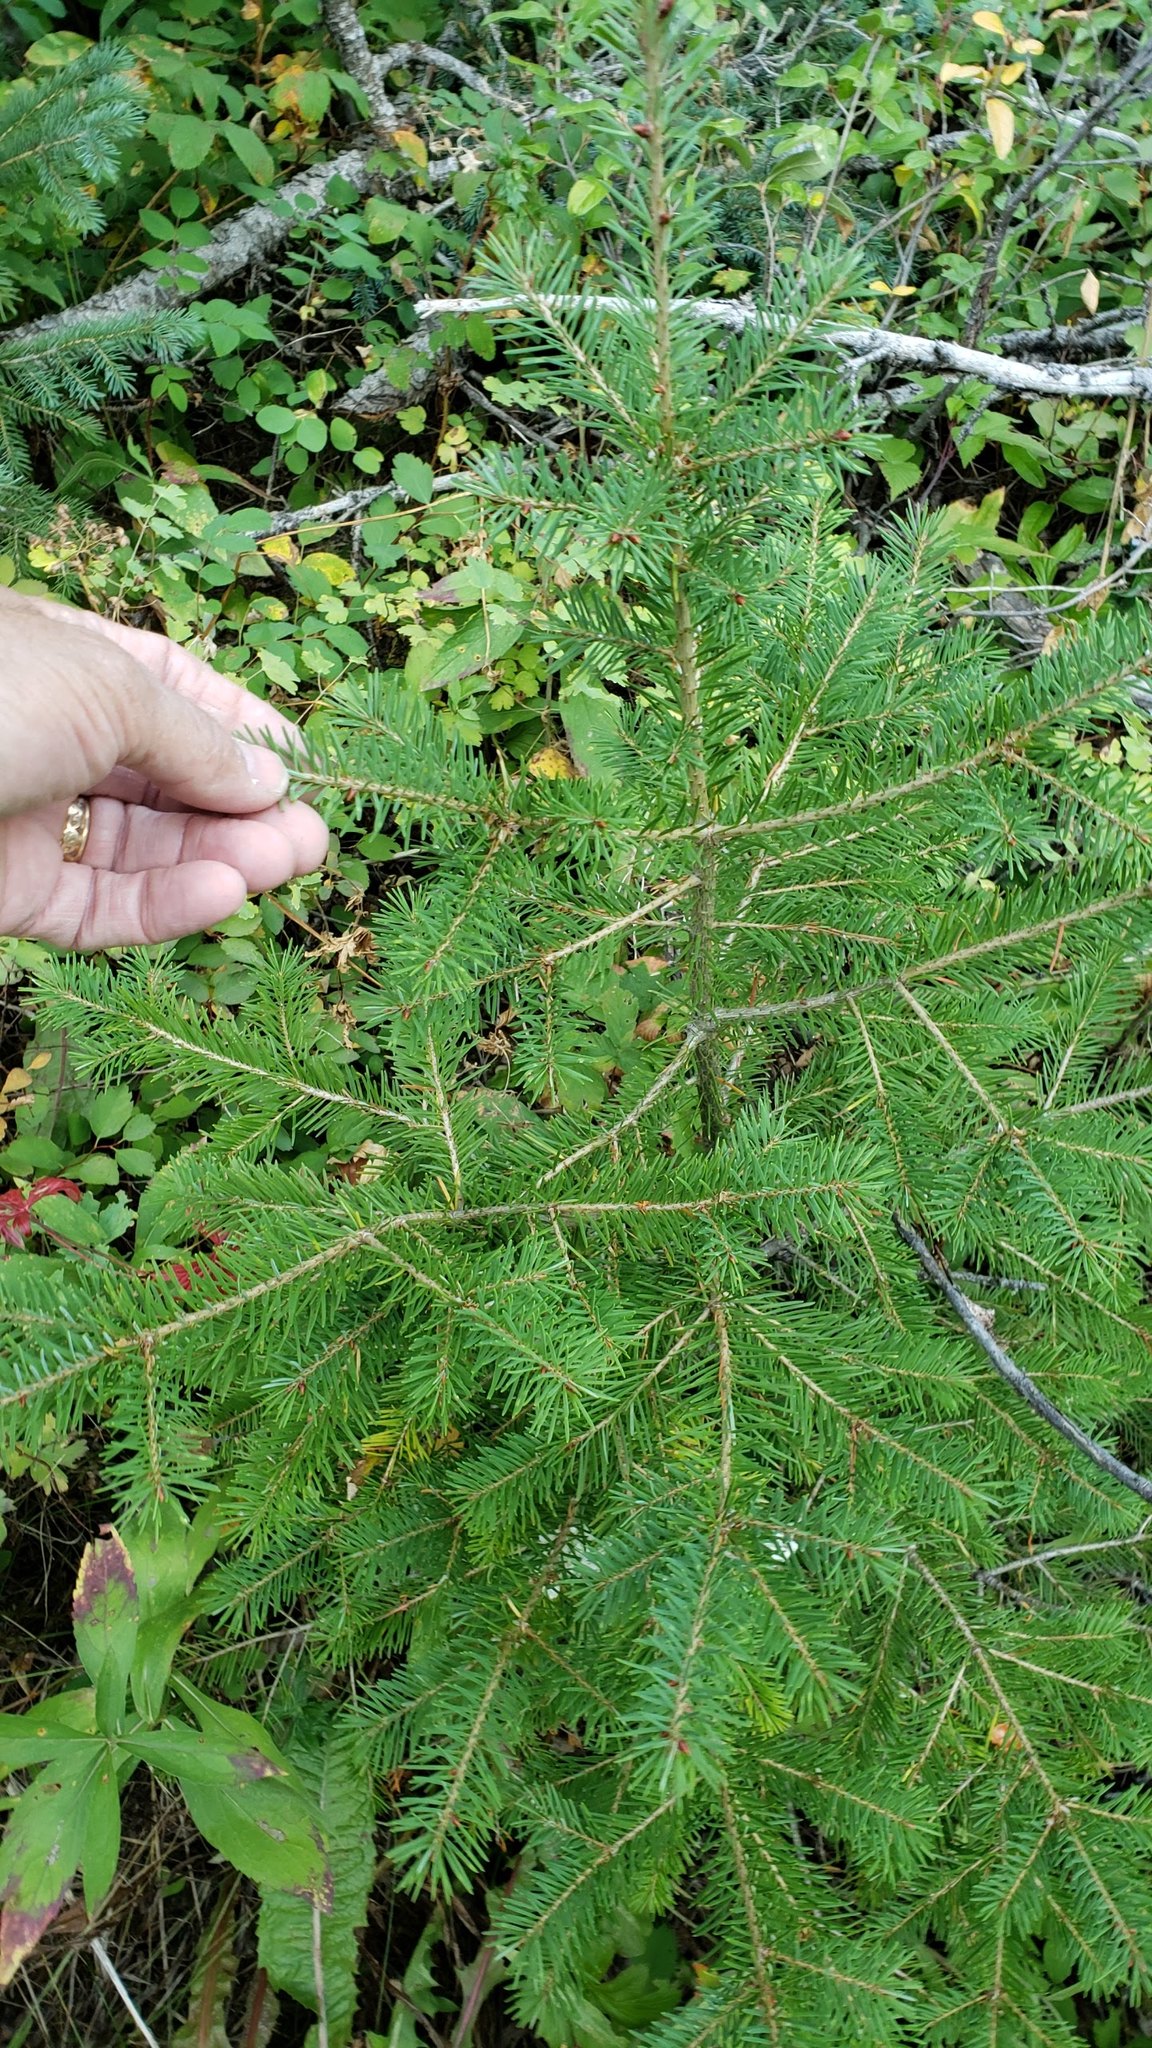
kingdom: Plantae
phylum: Tracheophyta
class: Pinopsida
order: Pinales
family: Pinaceae
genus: Pseudotsuga
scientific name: Pseudotsuga menziesii
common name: Douglas fir
